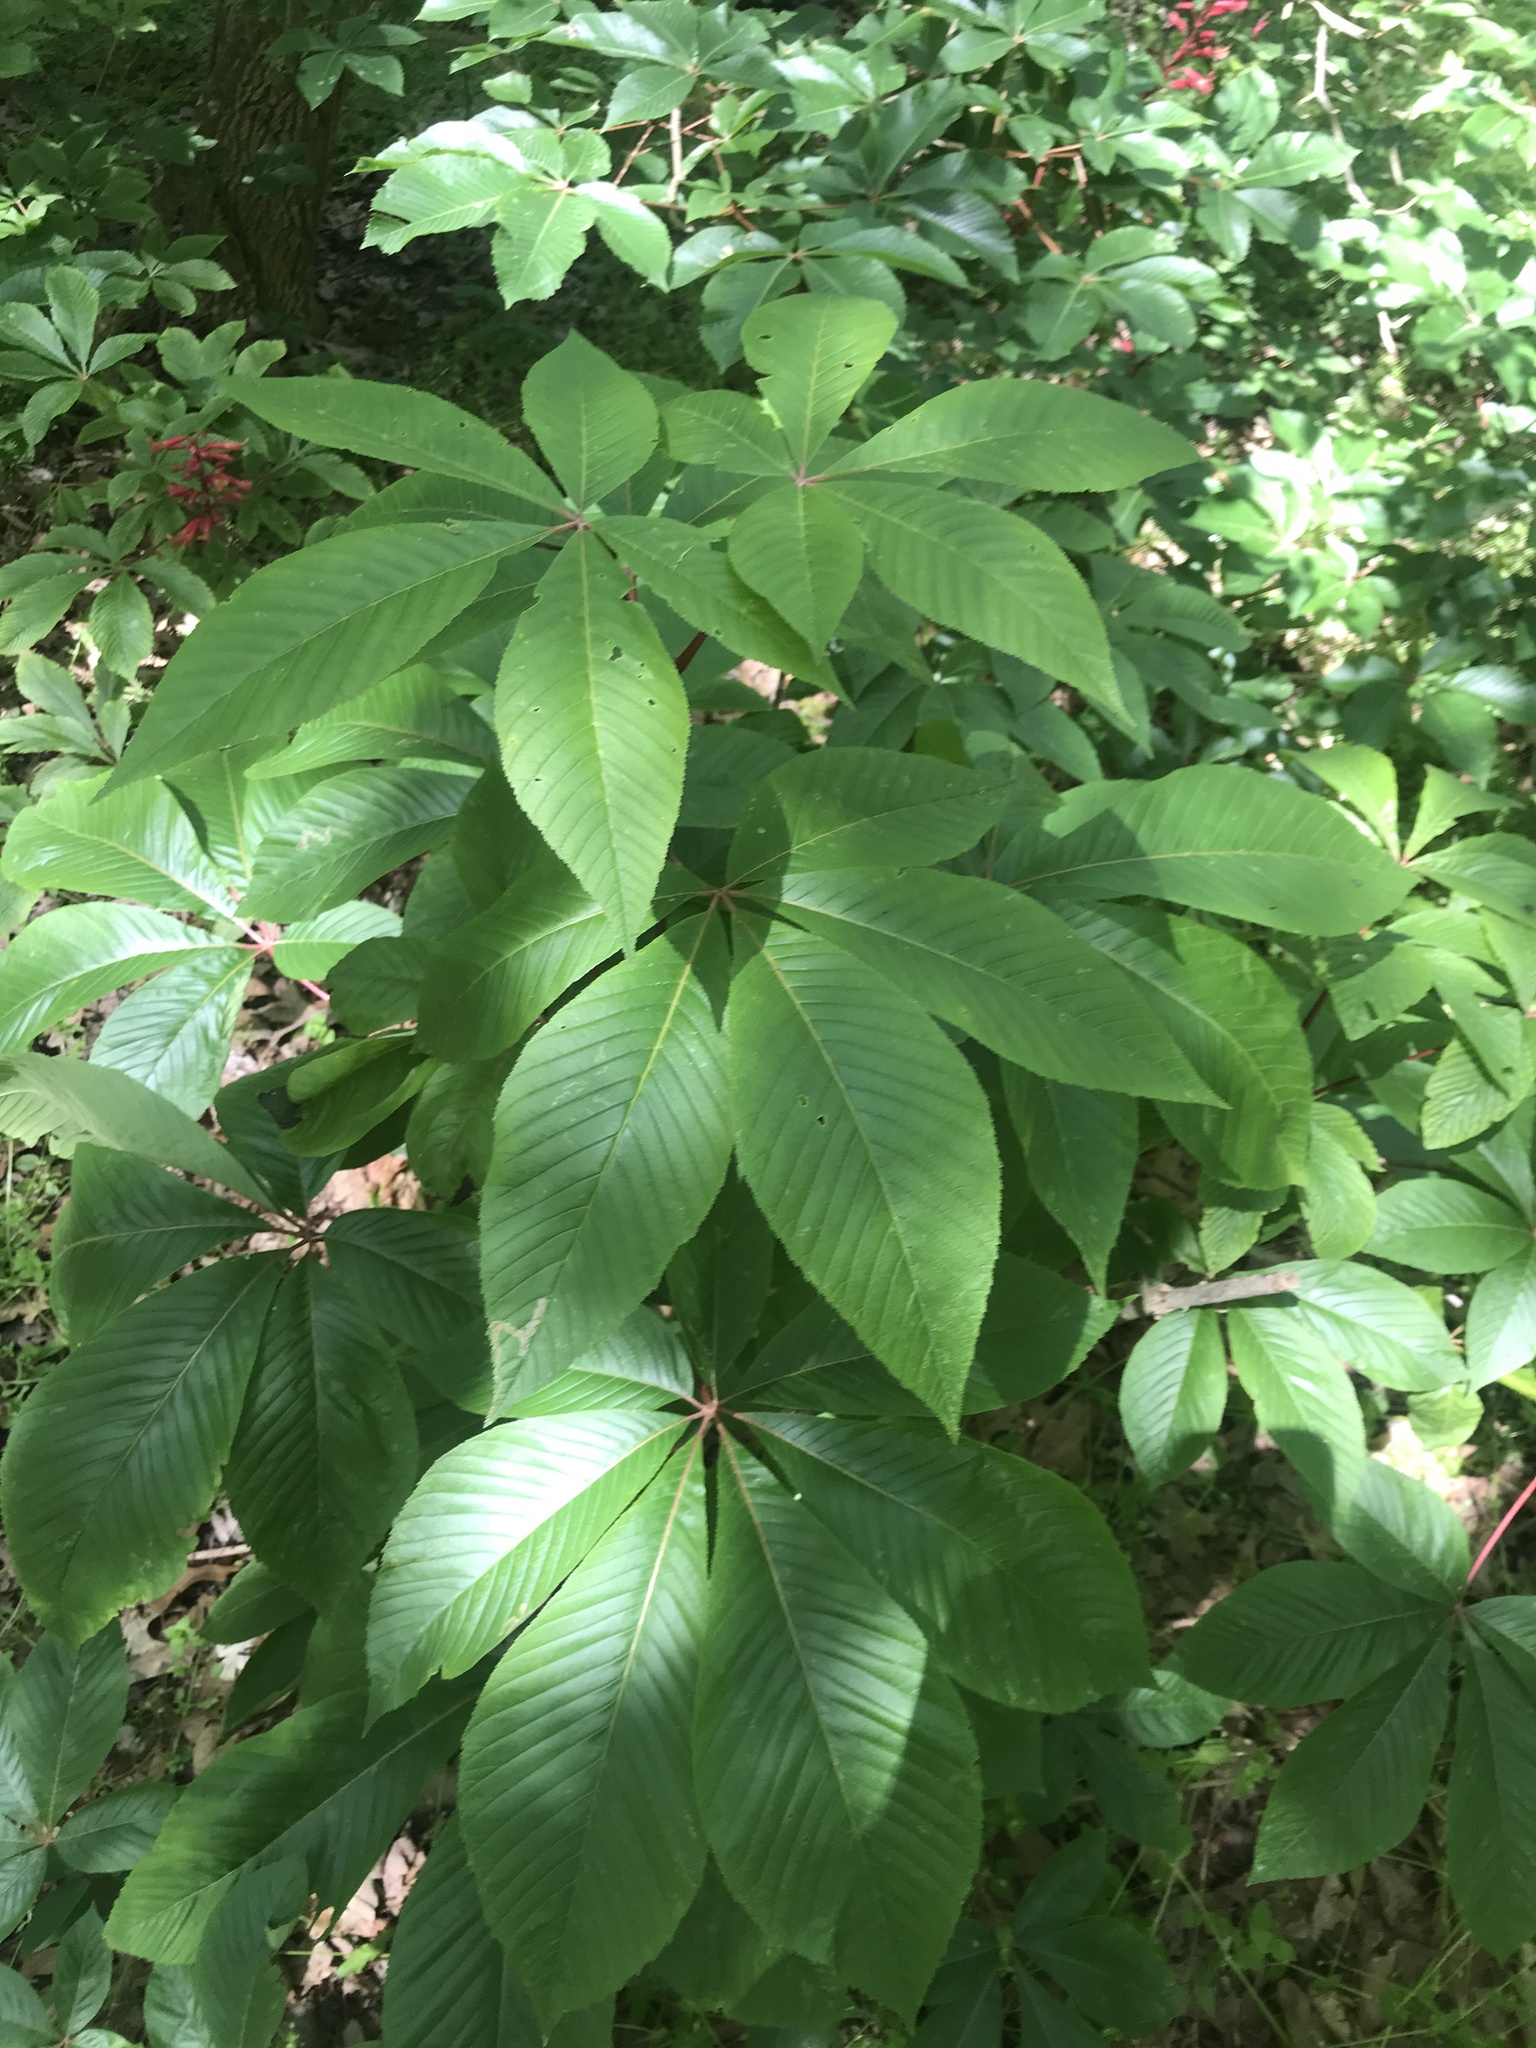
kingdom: Plantae
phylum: Tracheophyta
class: Magnoliopsida
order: Sapindales
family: Sapindaceae
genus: Aesculus
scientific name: Aesculus pavia
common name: Red buckeye
